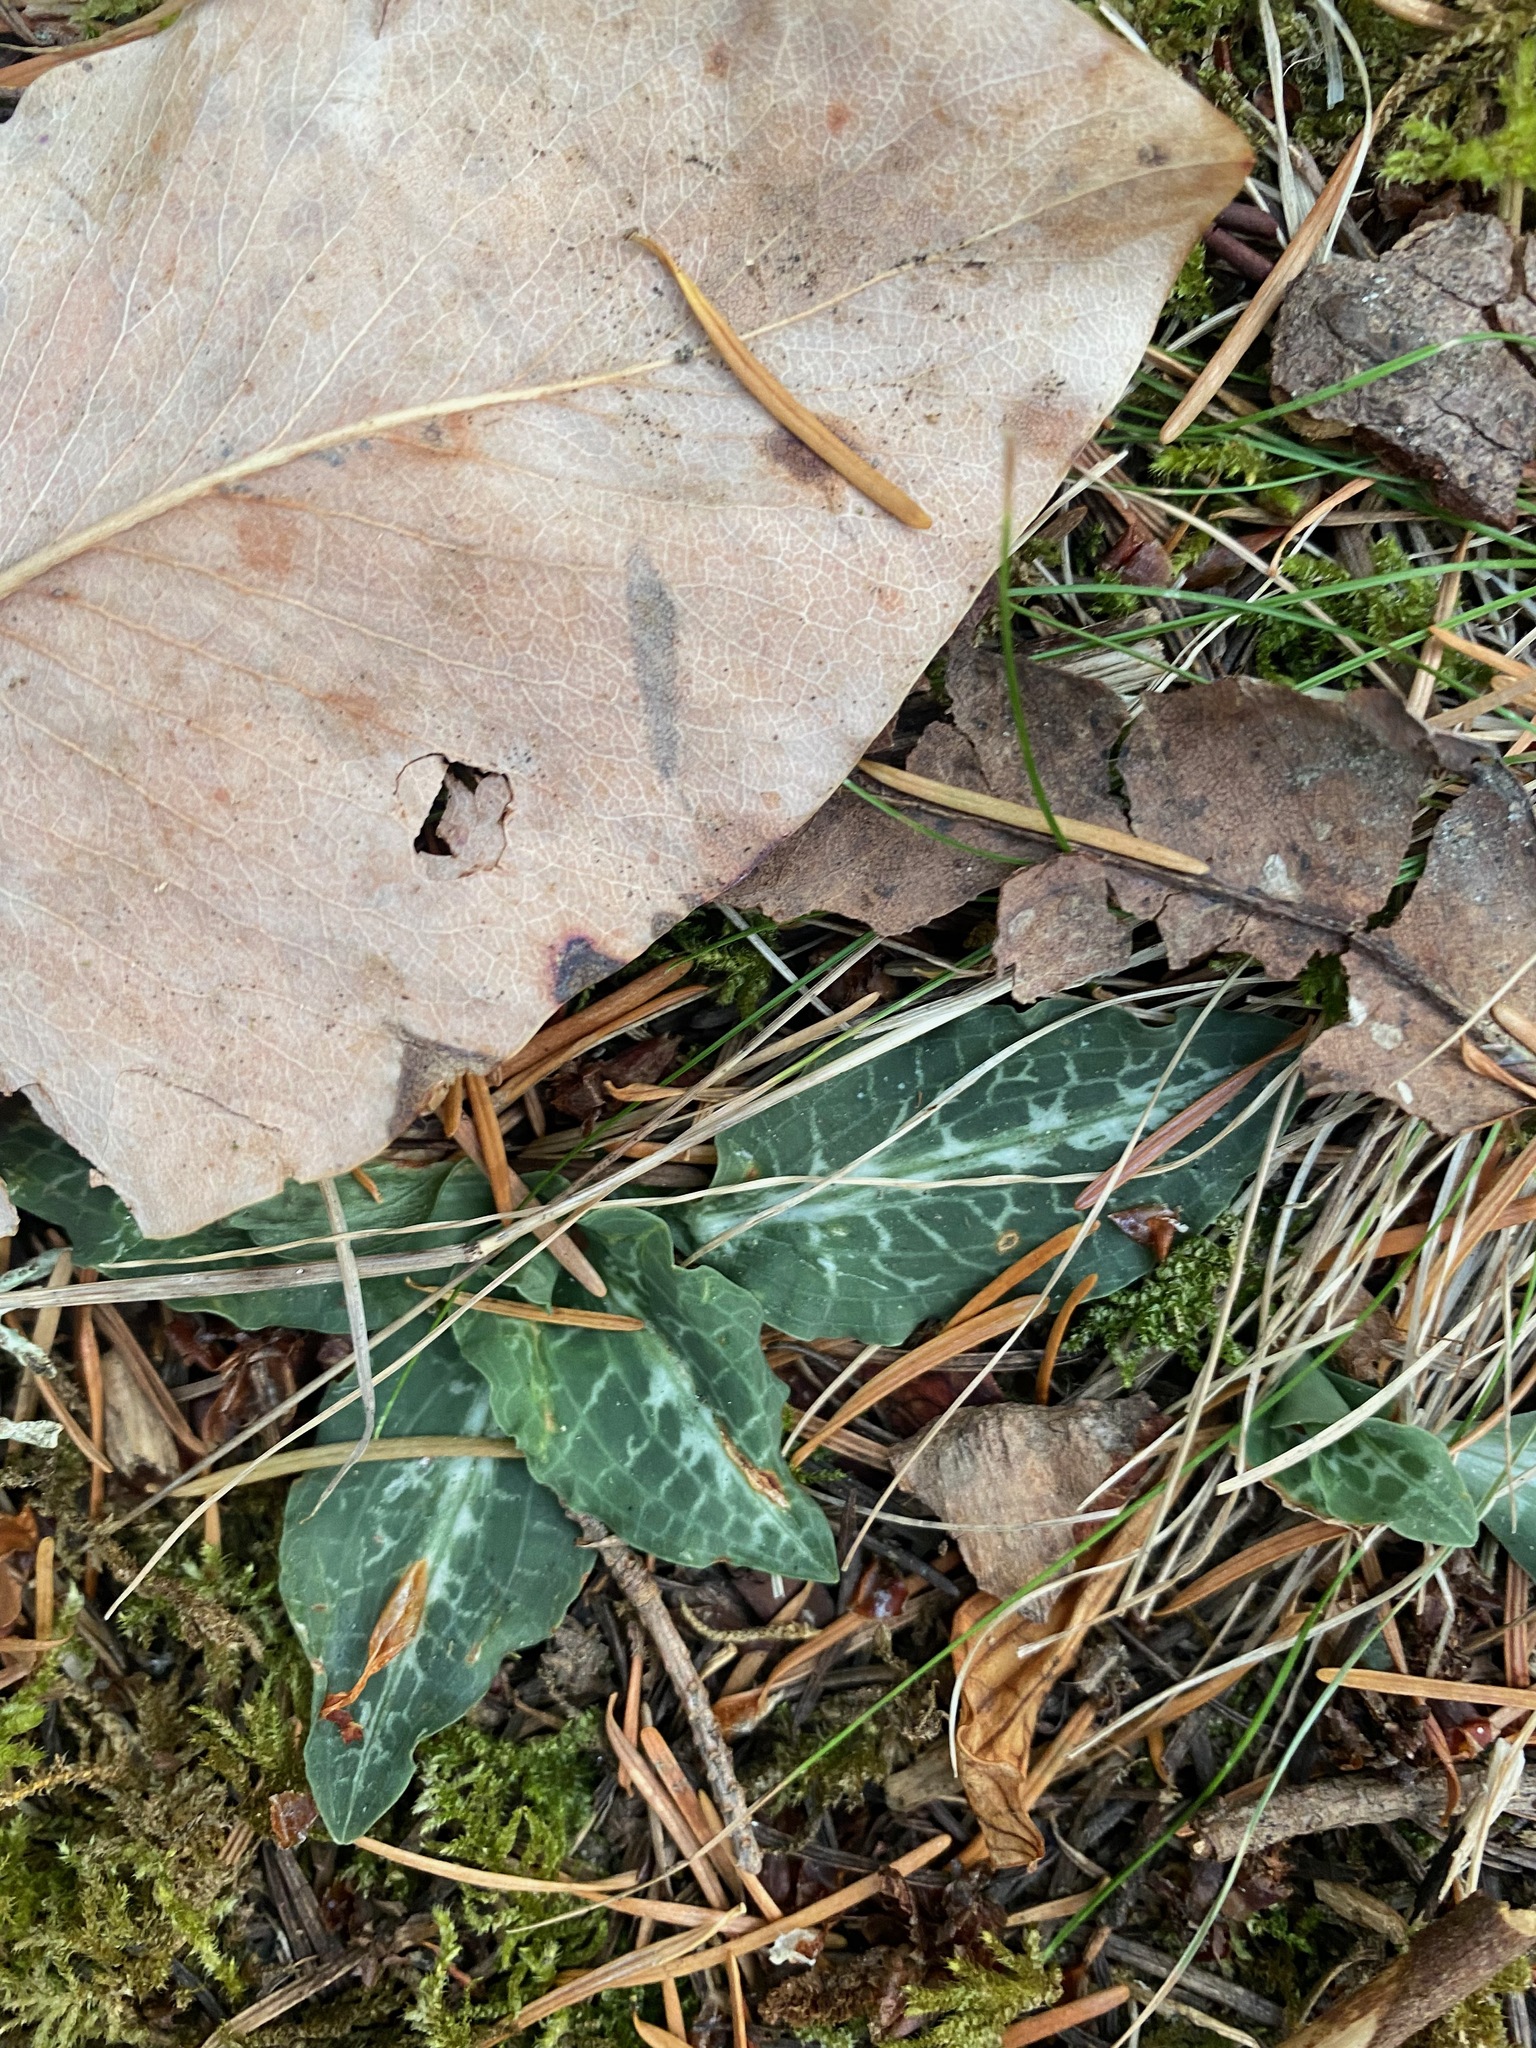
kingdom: Plantae
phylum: Tracheophyta
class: Liliopsida
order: Asparagales
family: Orchidaceae
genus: Goodyera
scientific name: Goodyera oblongifolia
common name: Giant rattlesnake-plantain
